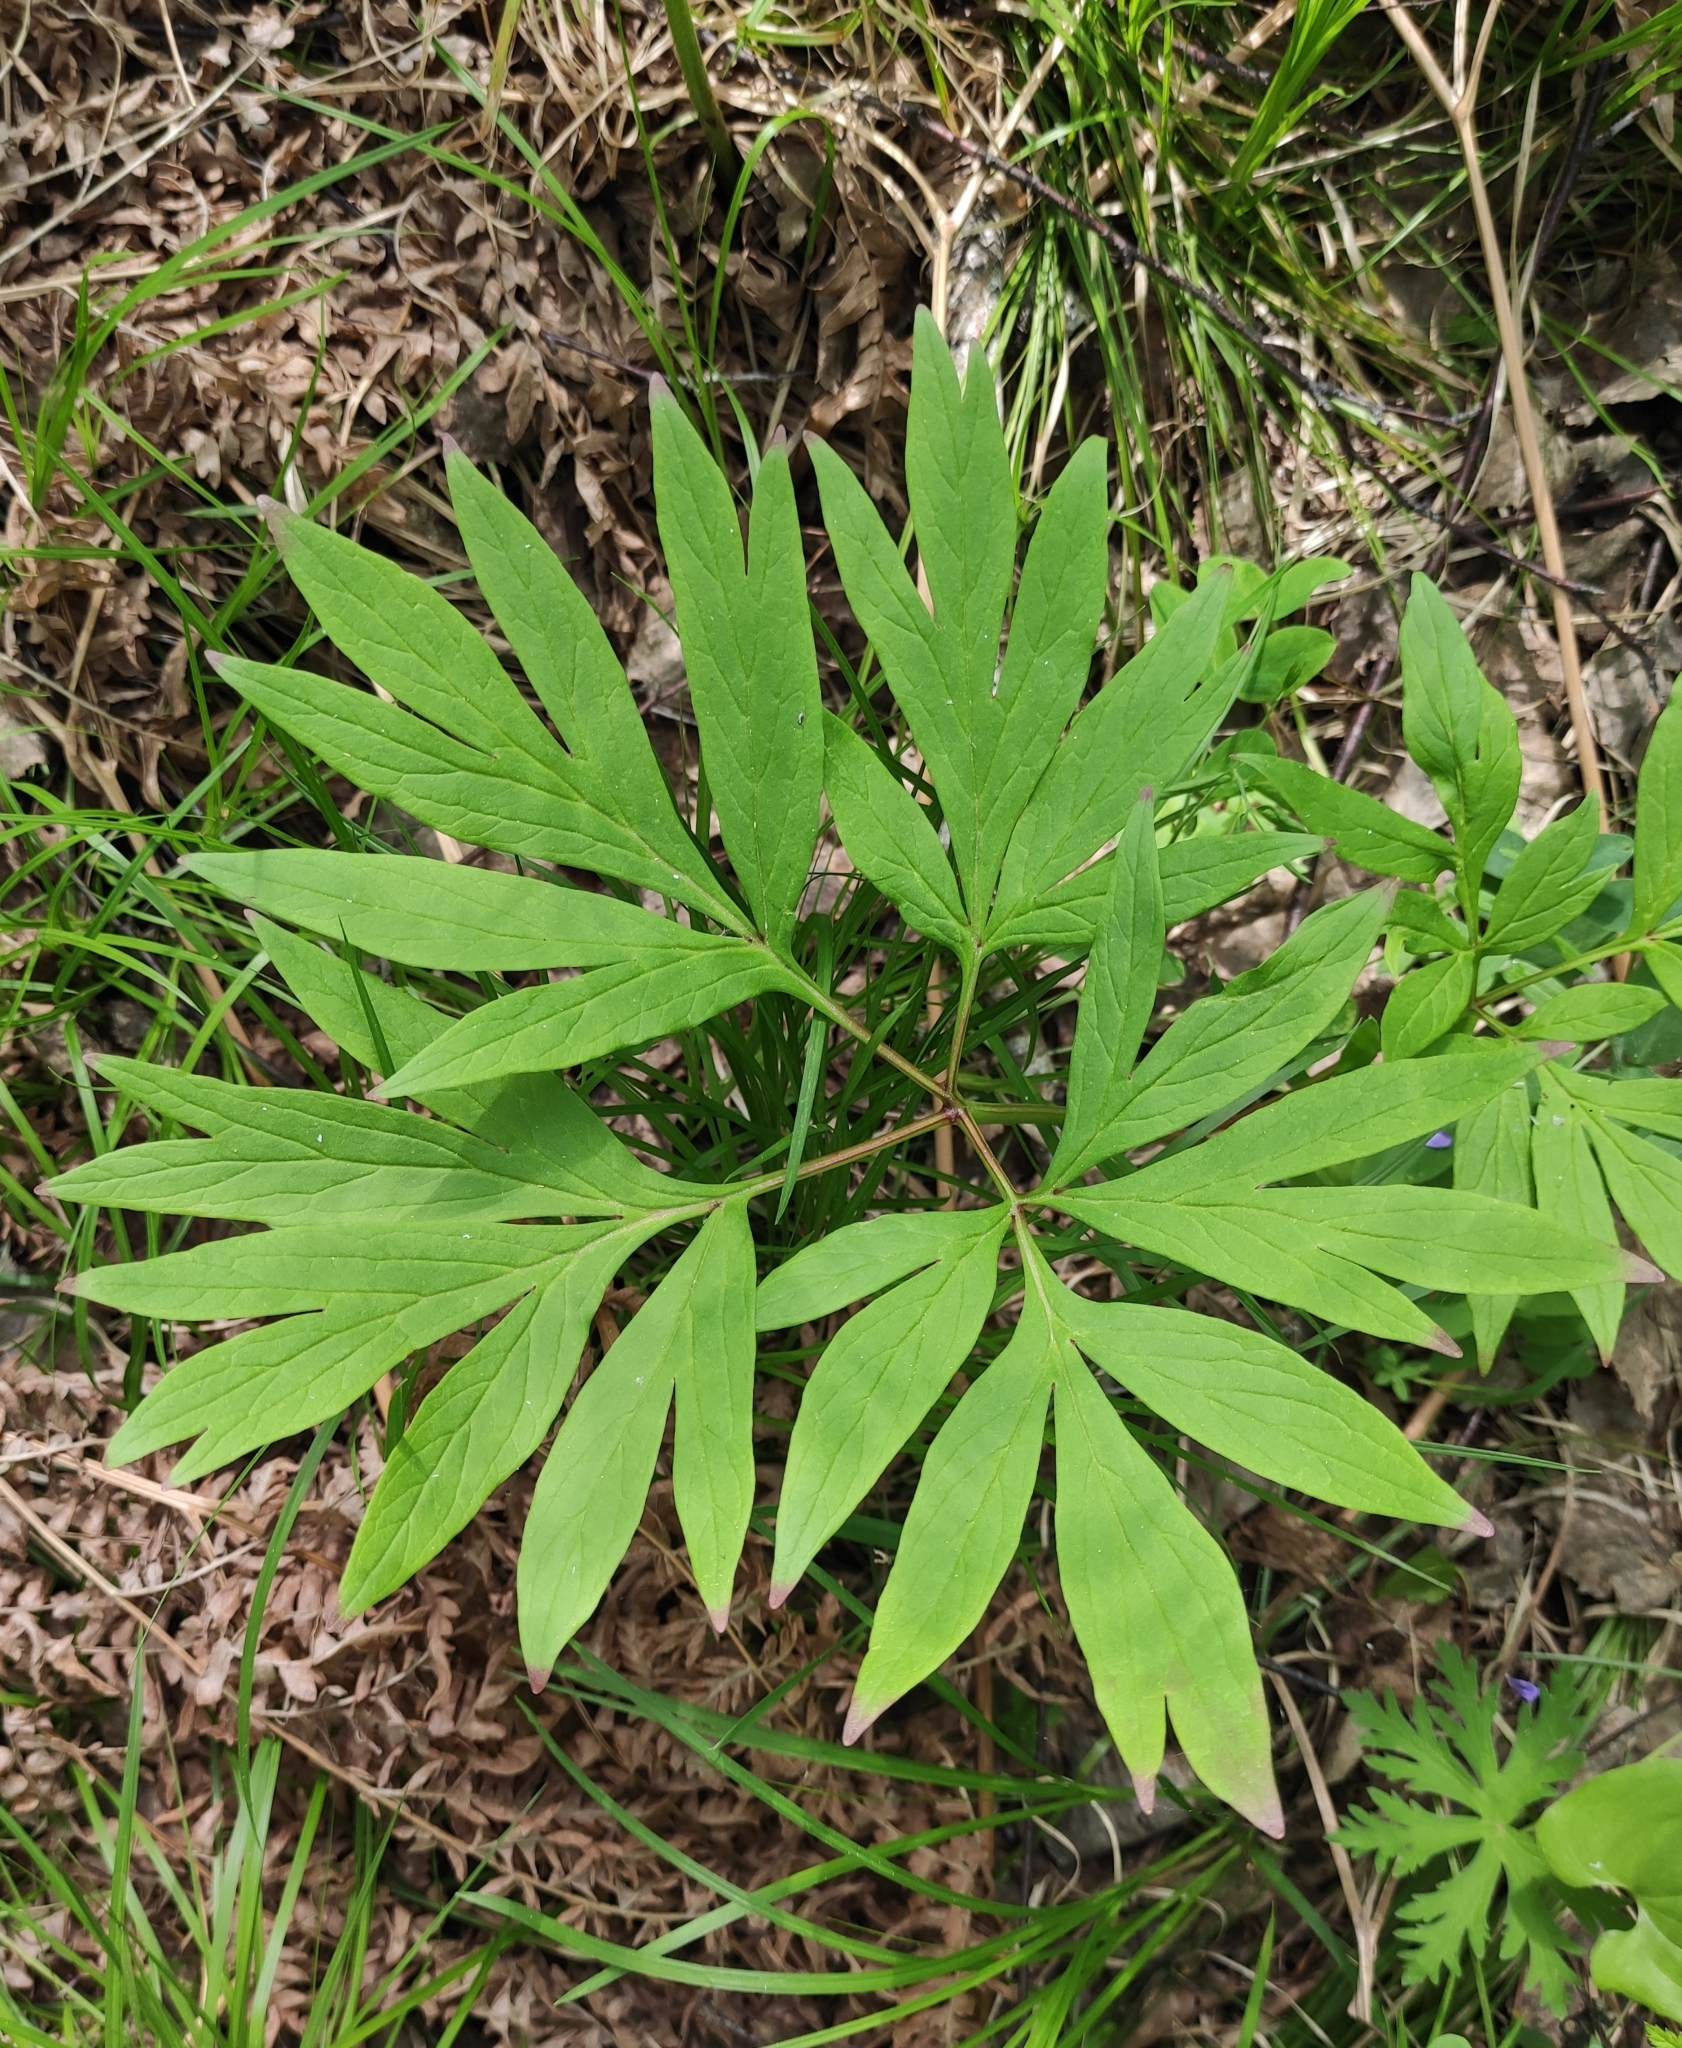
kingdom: Plantae
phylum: Tracheophyta
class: Magnoliopsida
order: Saxifragales
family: Paeoniaceae
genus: Paeonia
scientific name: Paeonia anomala
